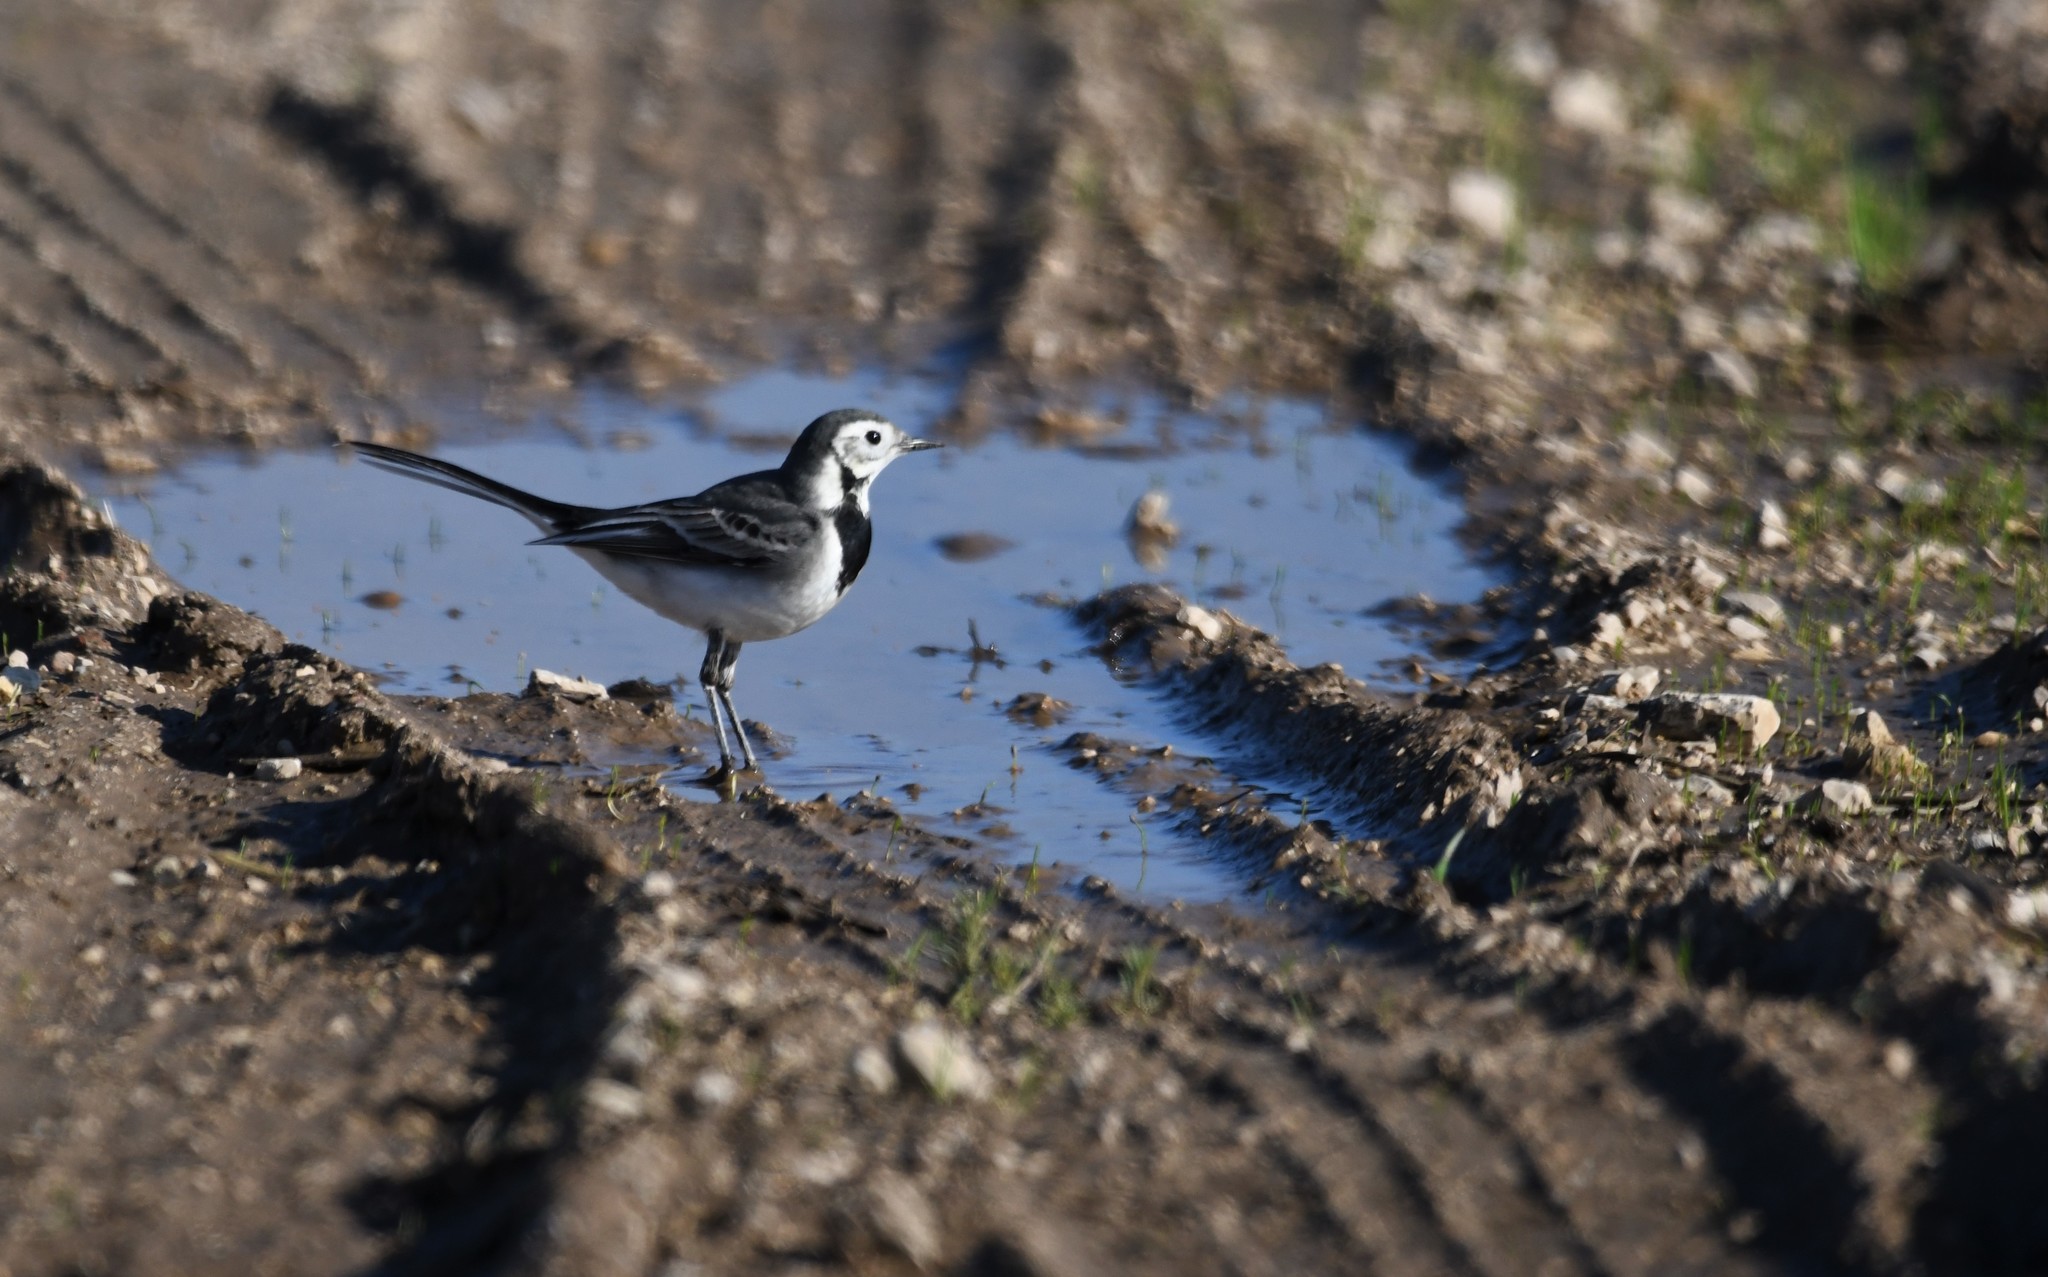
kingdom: Animalia
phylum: Chordata
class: Aves
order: Passeriformes
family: Motacillidae
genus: Motacilla
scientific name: Motacilla alba
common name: White wagtail
